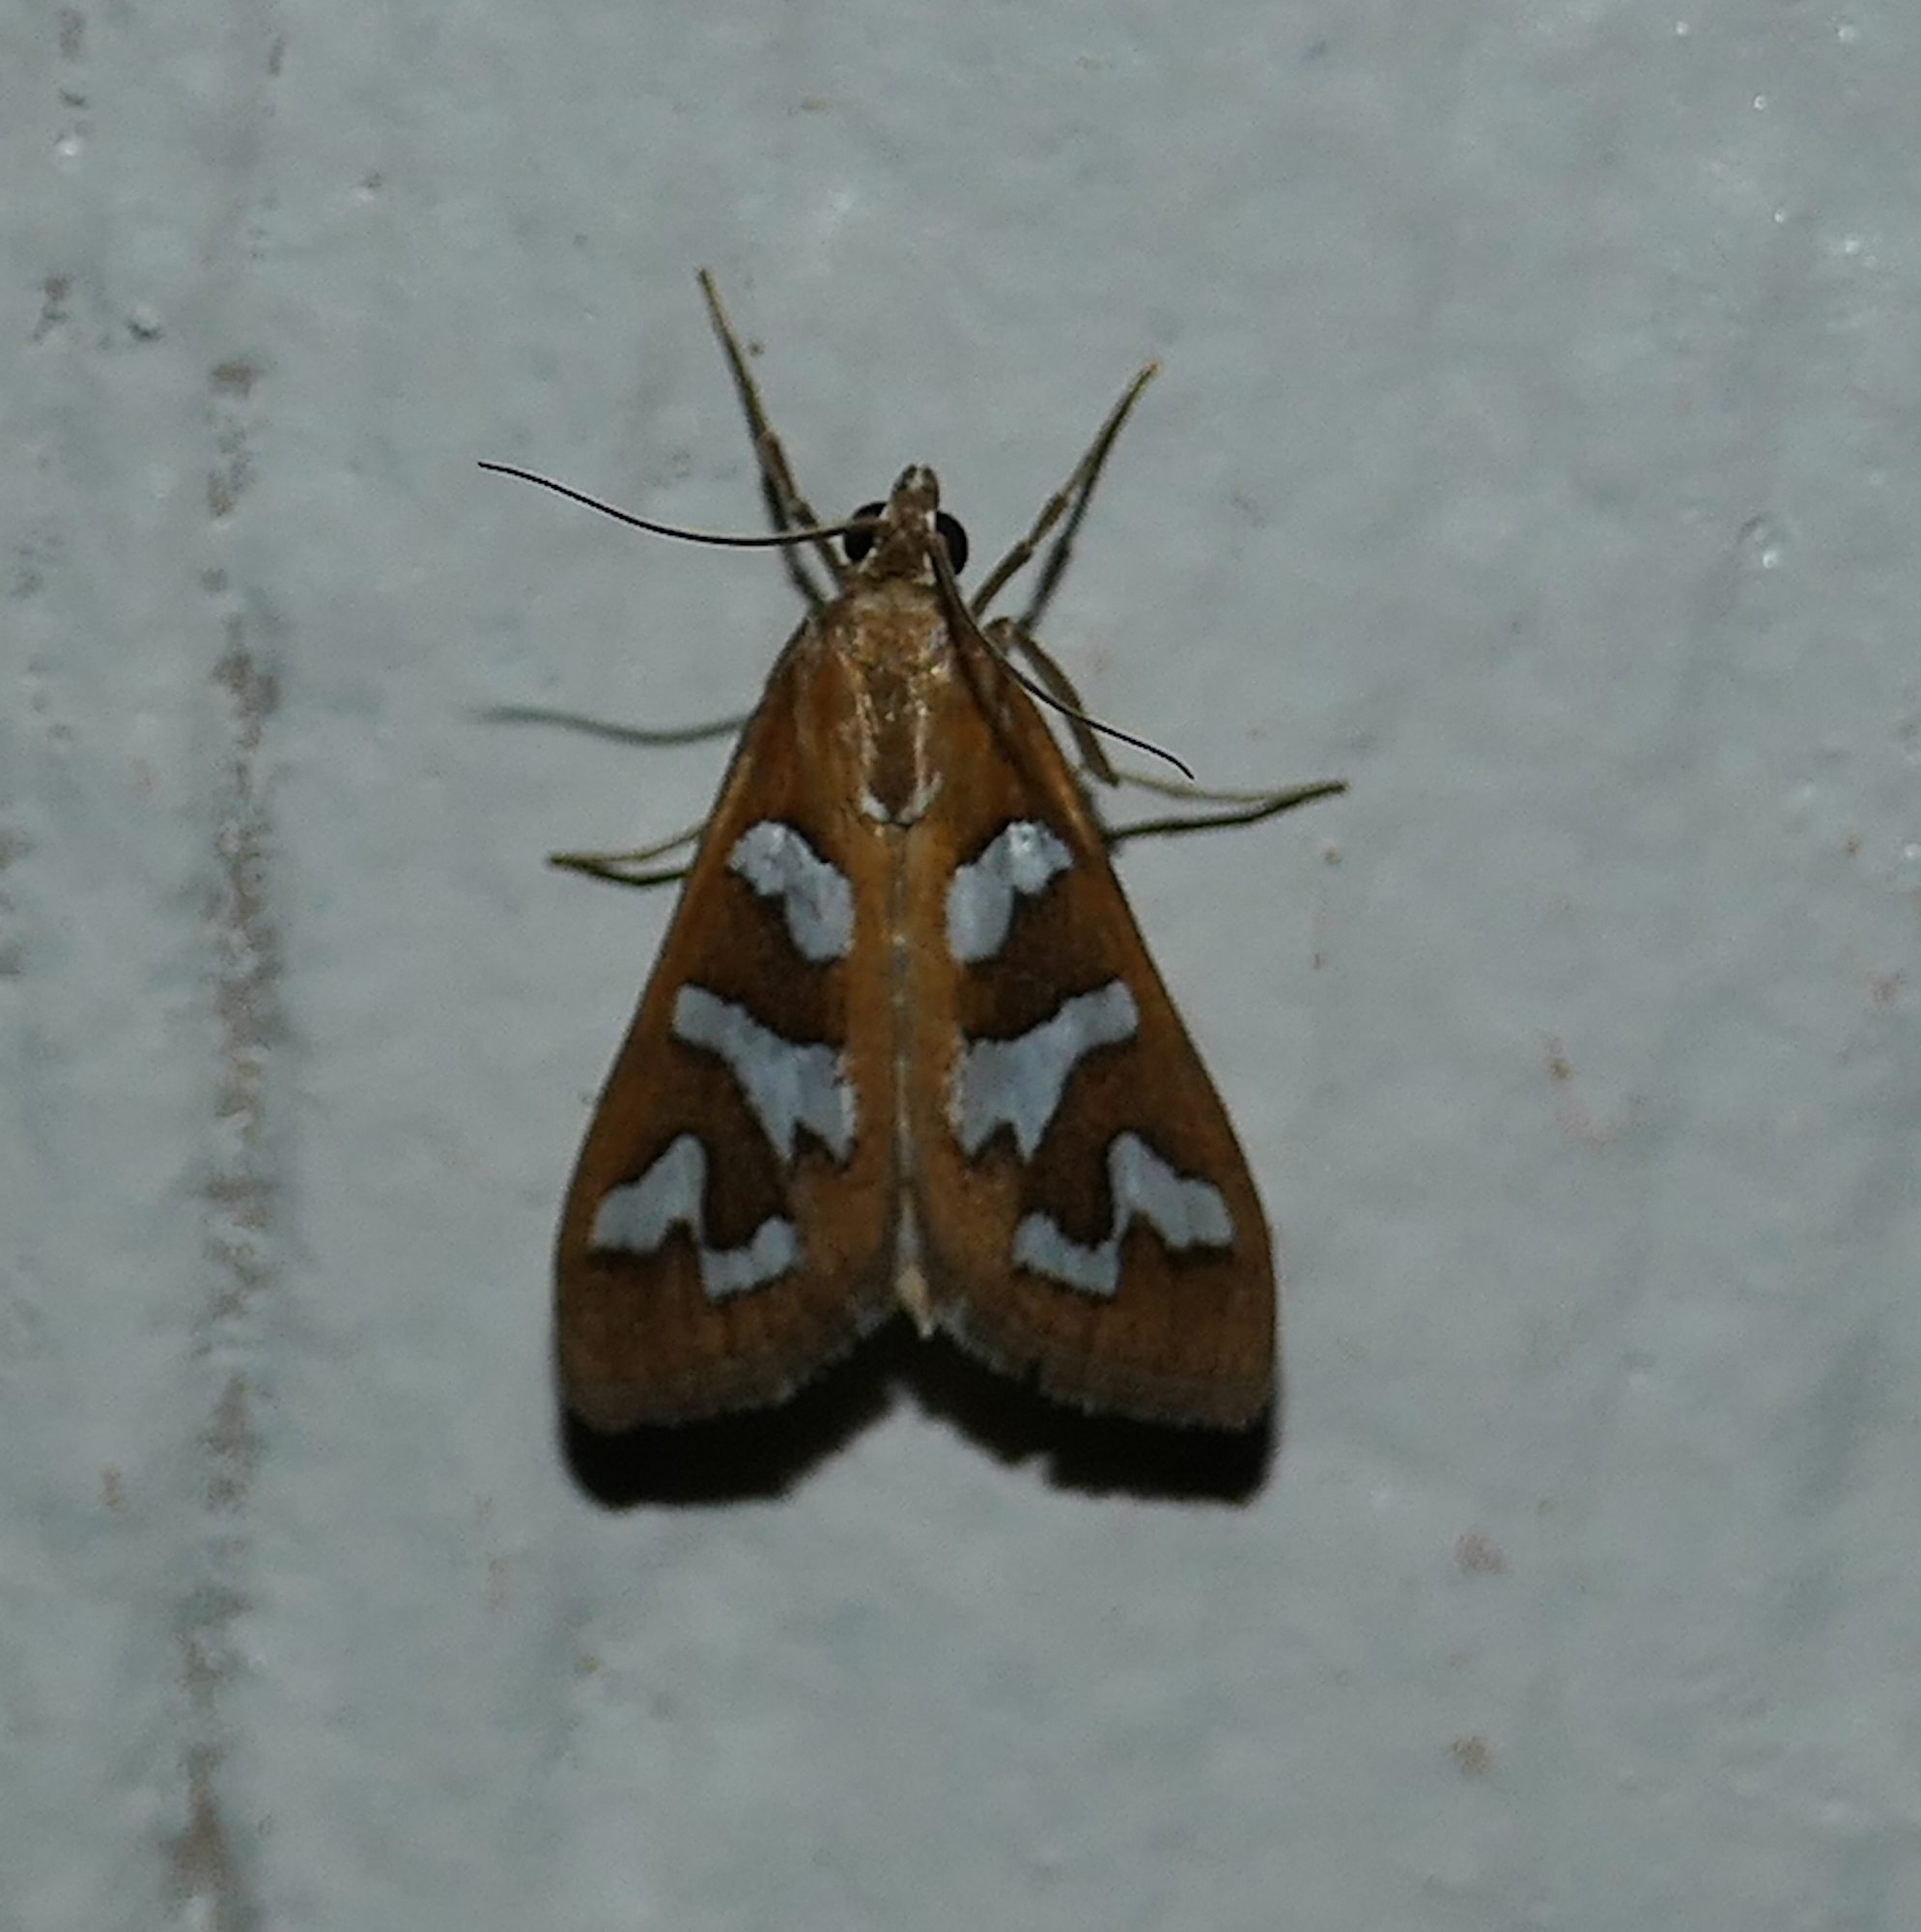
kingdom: Animalia
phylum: Arthropoda
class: Insecta
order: Lepidoptera
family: Crambidae
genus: Diastictis
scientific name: Diastictis fracturalis
